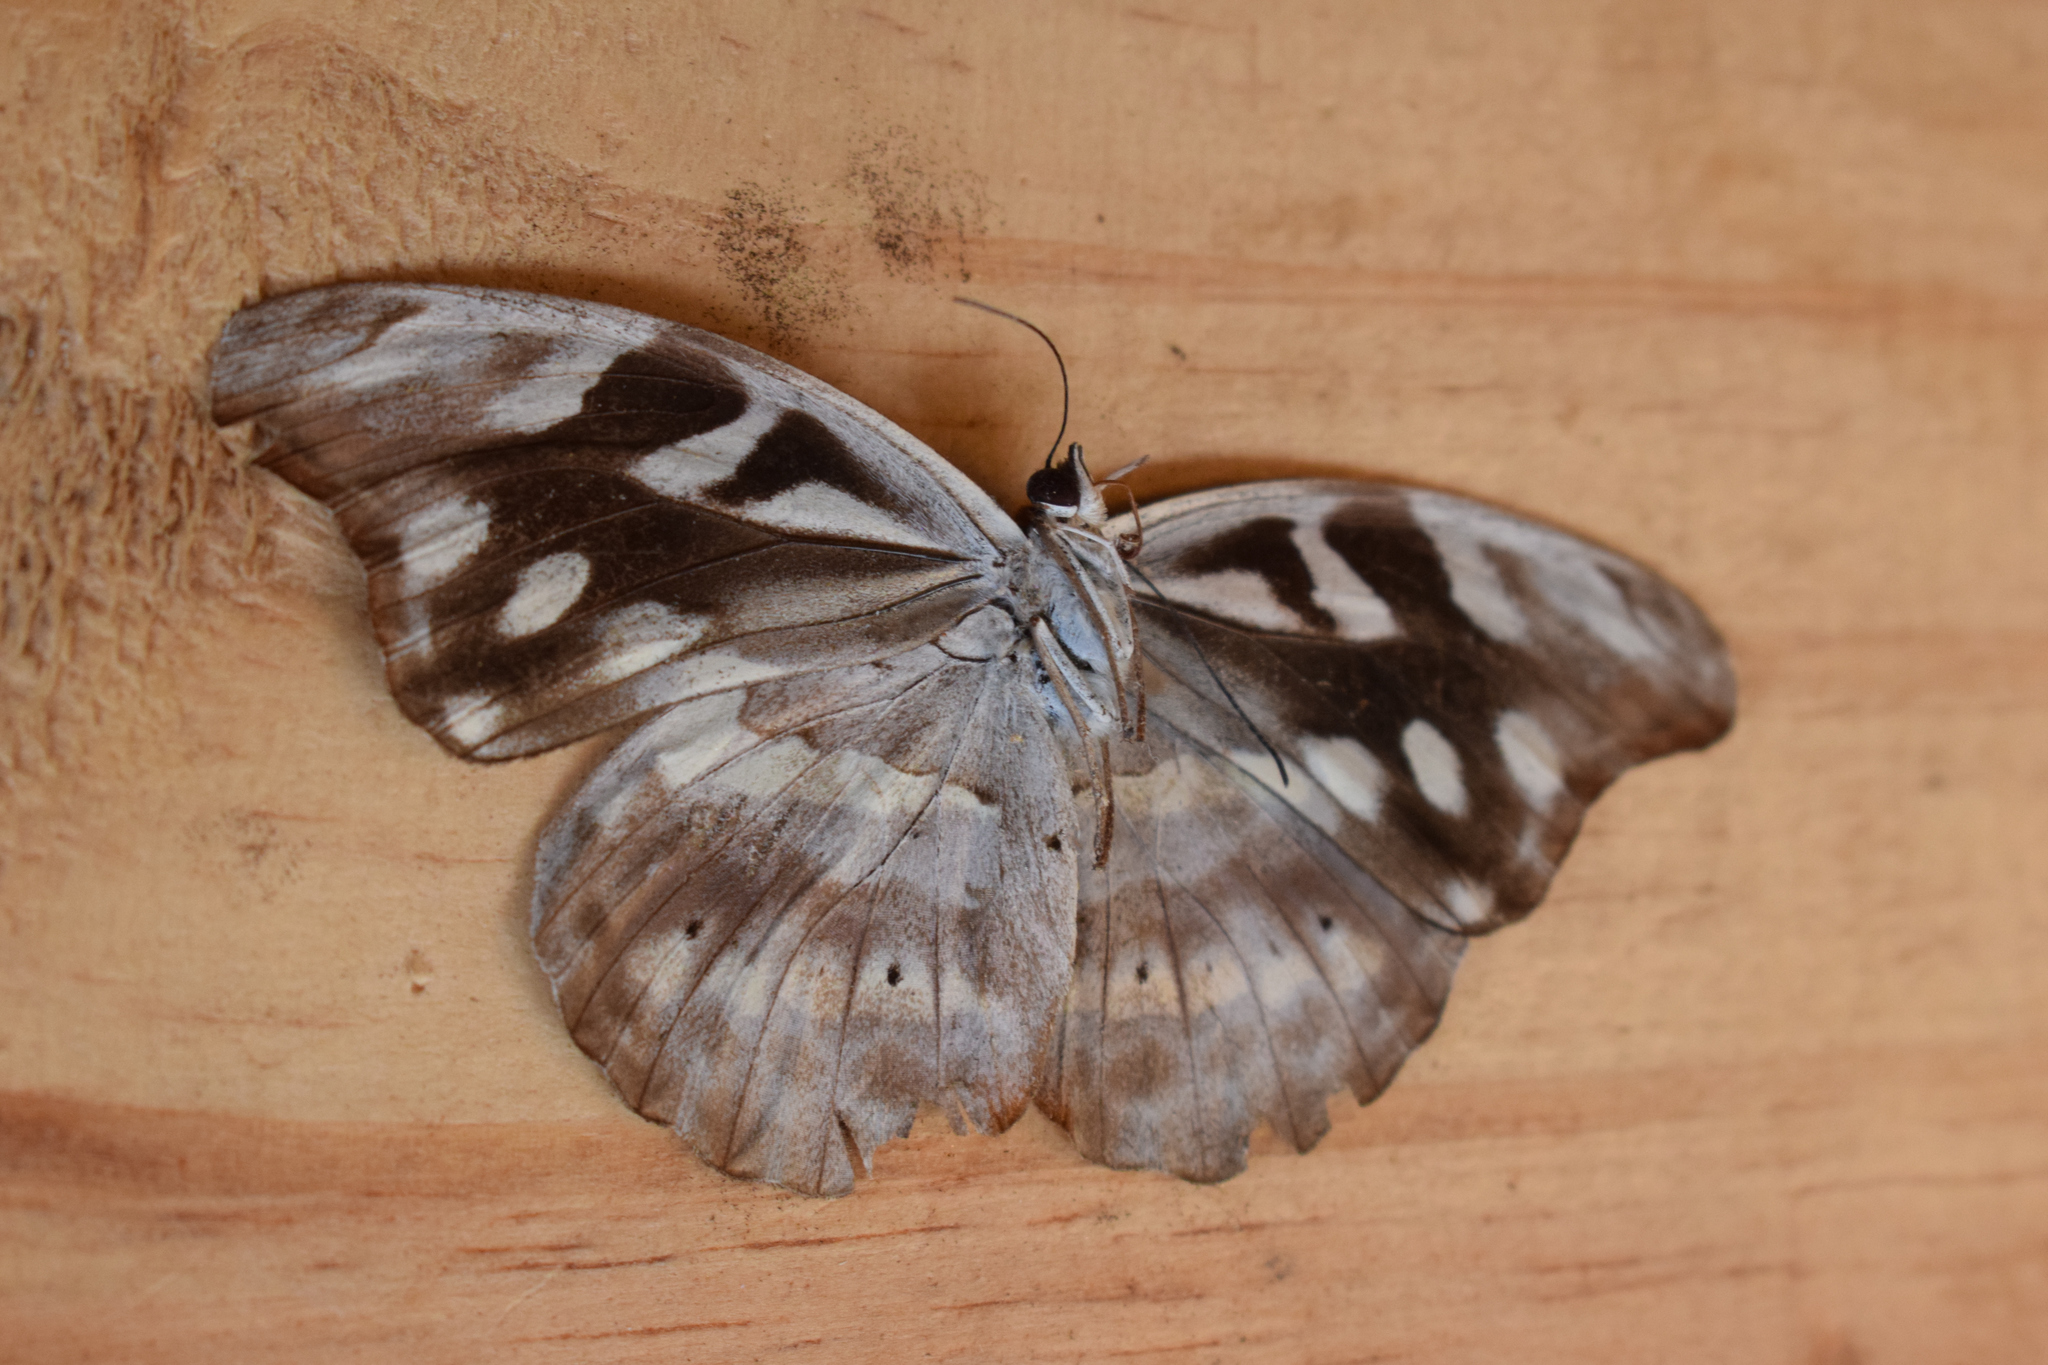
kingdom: Animalia
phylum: Arthropoda
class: Insecta
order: Lepidoptera
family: Nymphalidae
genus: Catonephele
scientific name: Catonephele acontius
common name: Unspotted firewing
